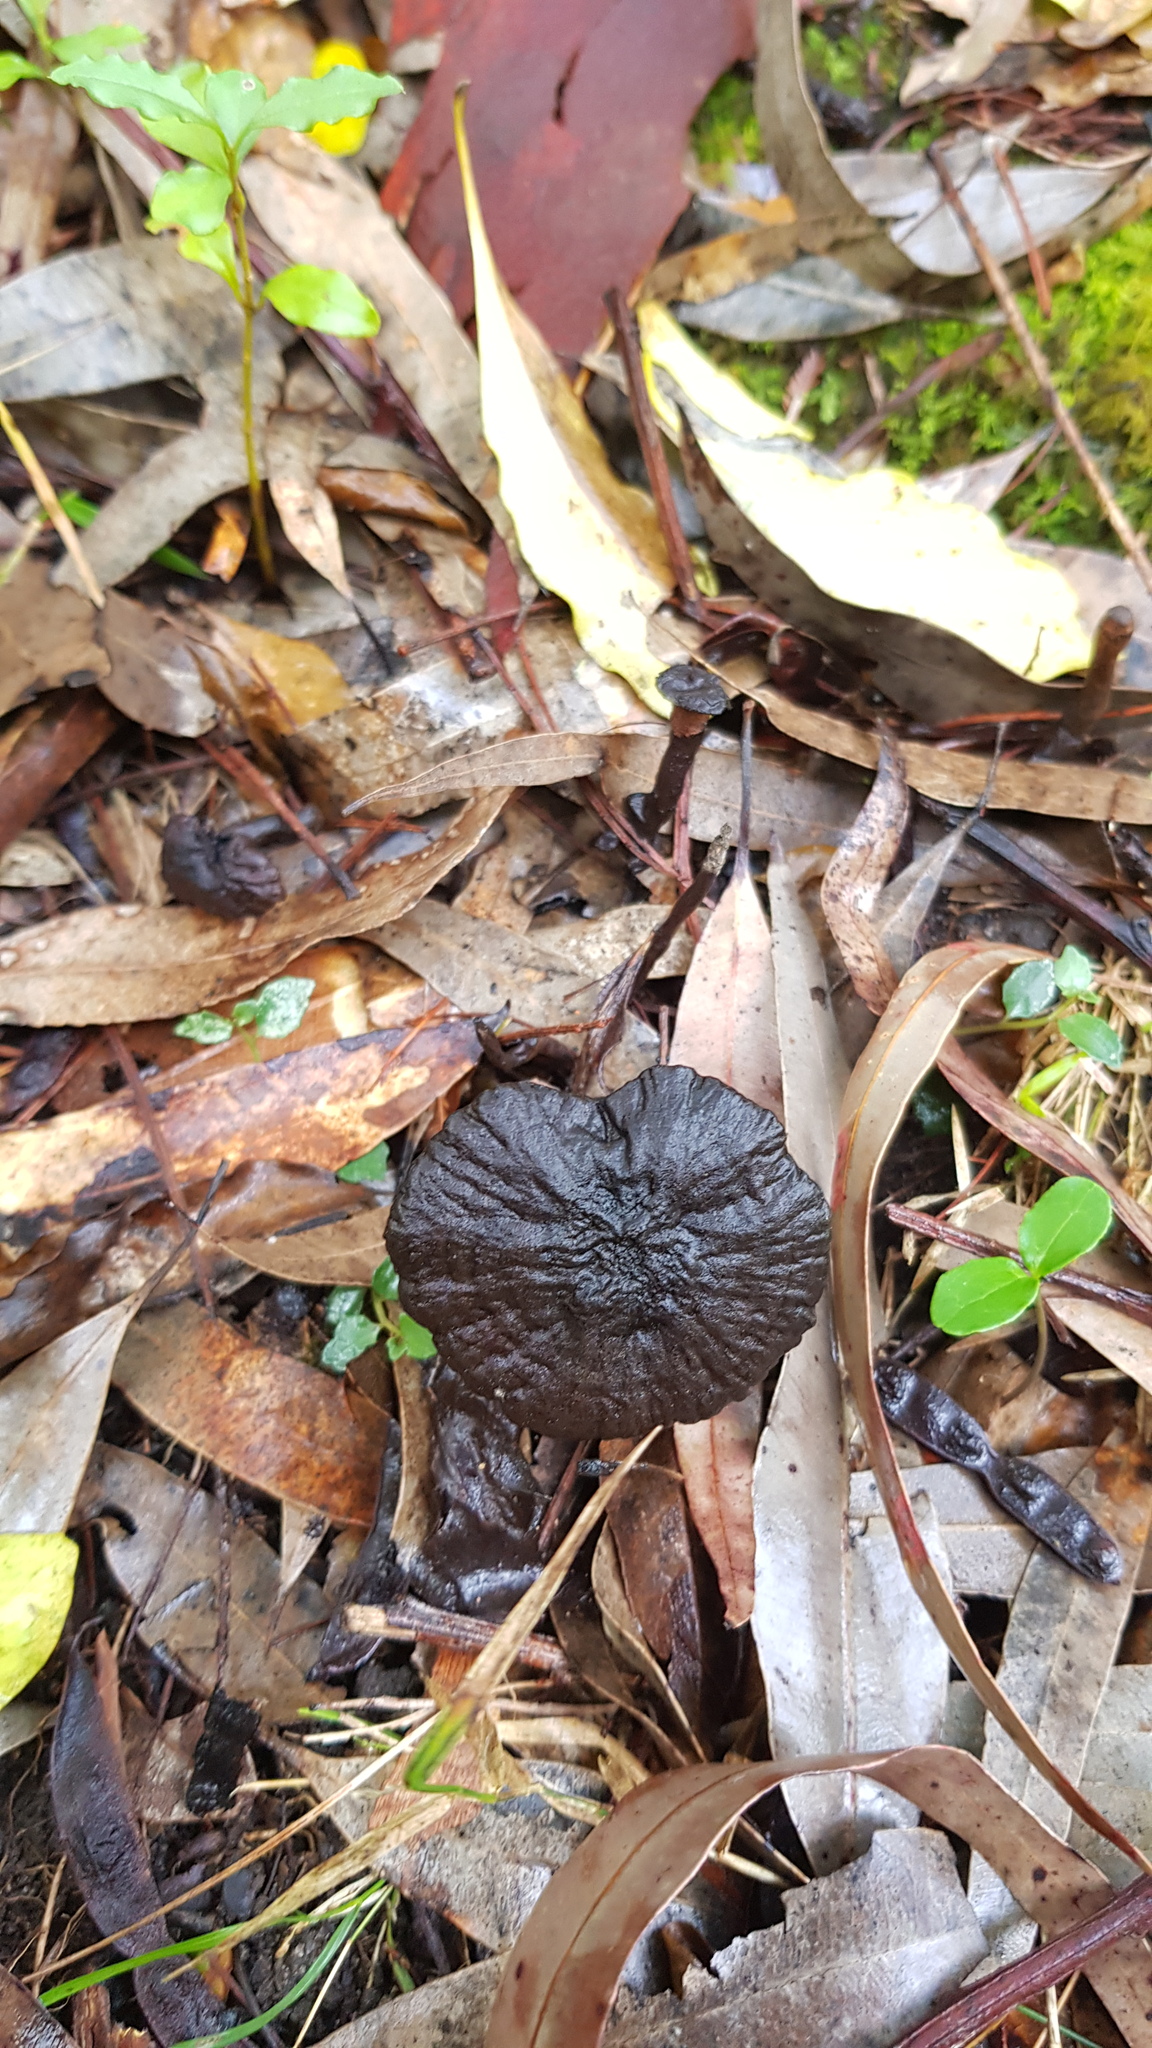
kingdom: Fungi
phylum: Basidiomycota
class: Agaricomycetes
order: Polyporales
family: Ganodermataceae
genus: Sanguinoderma
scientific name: Sanguinoderma rude
